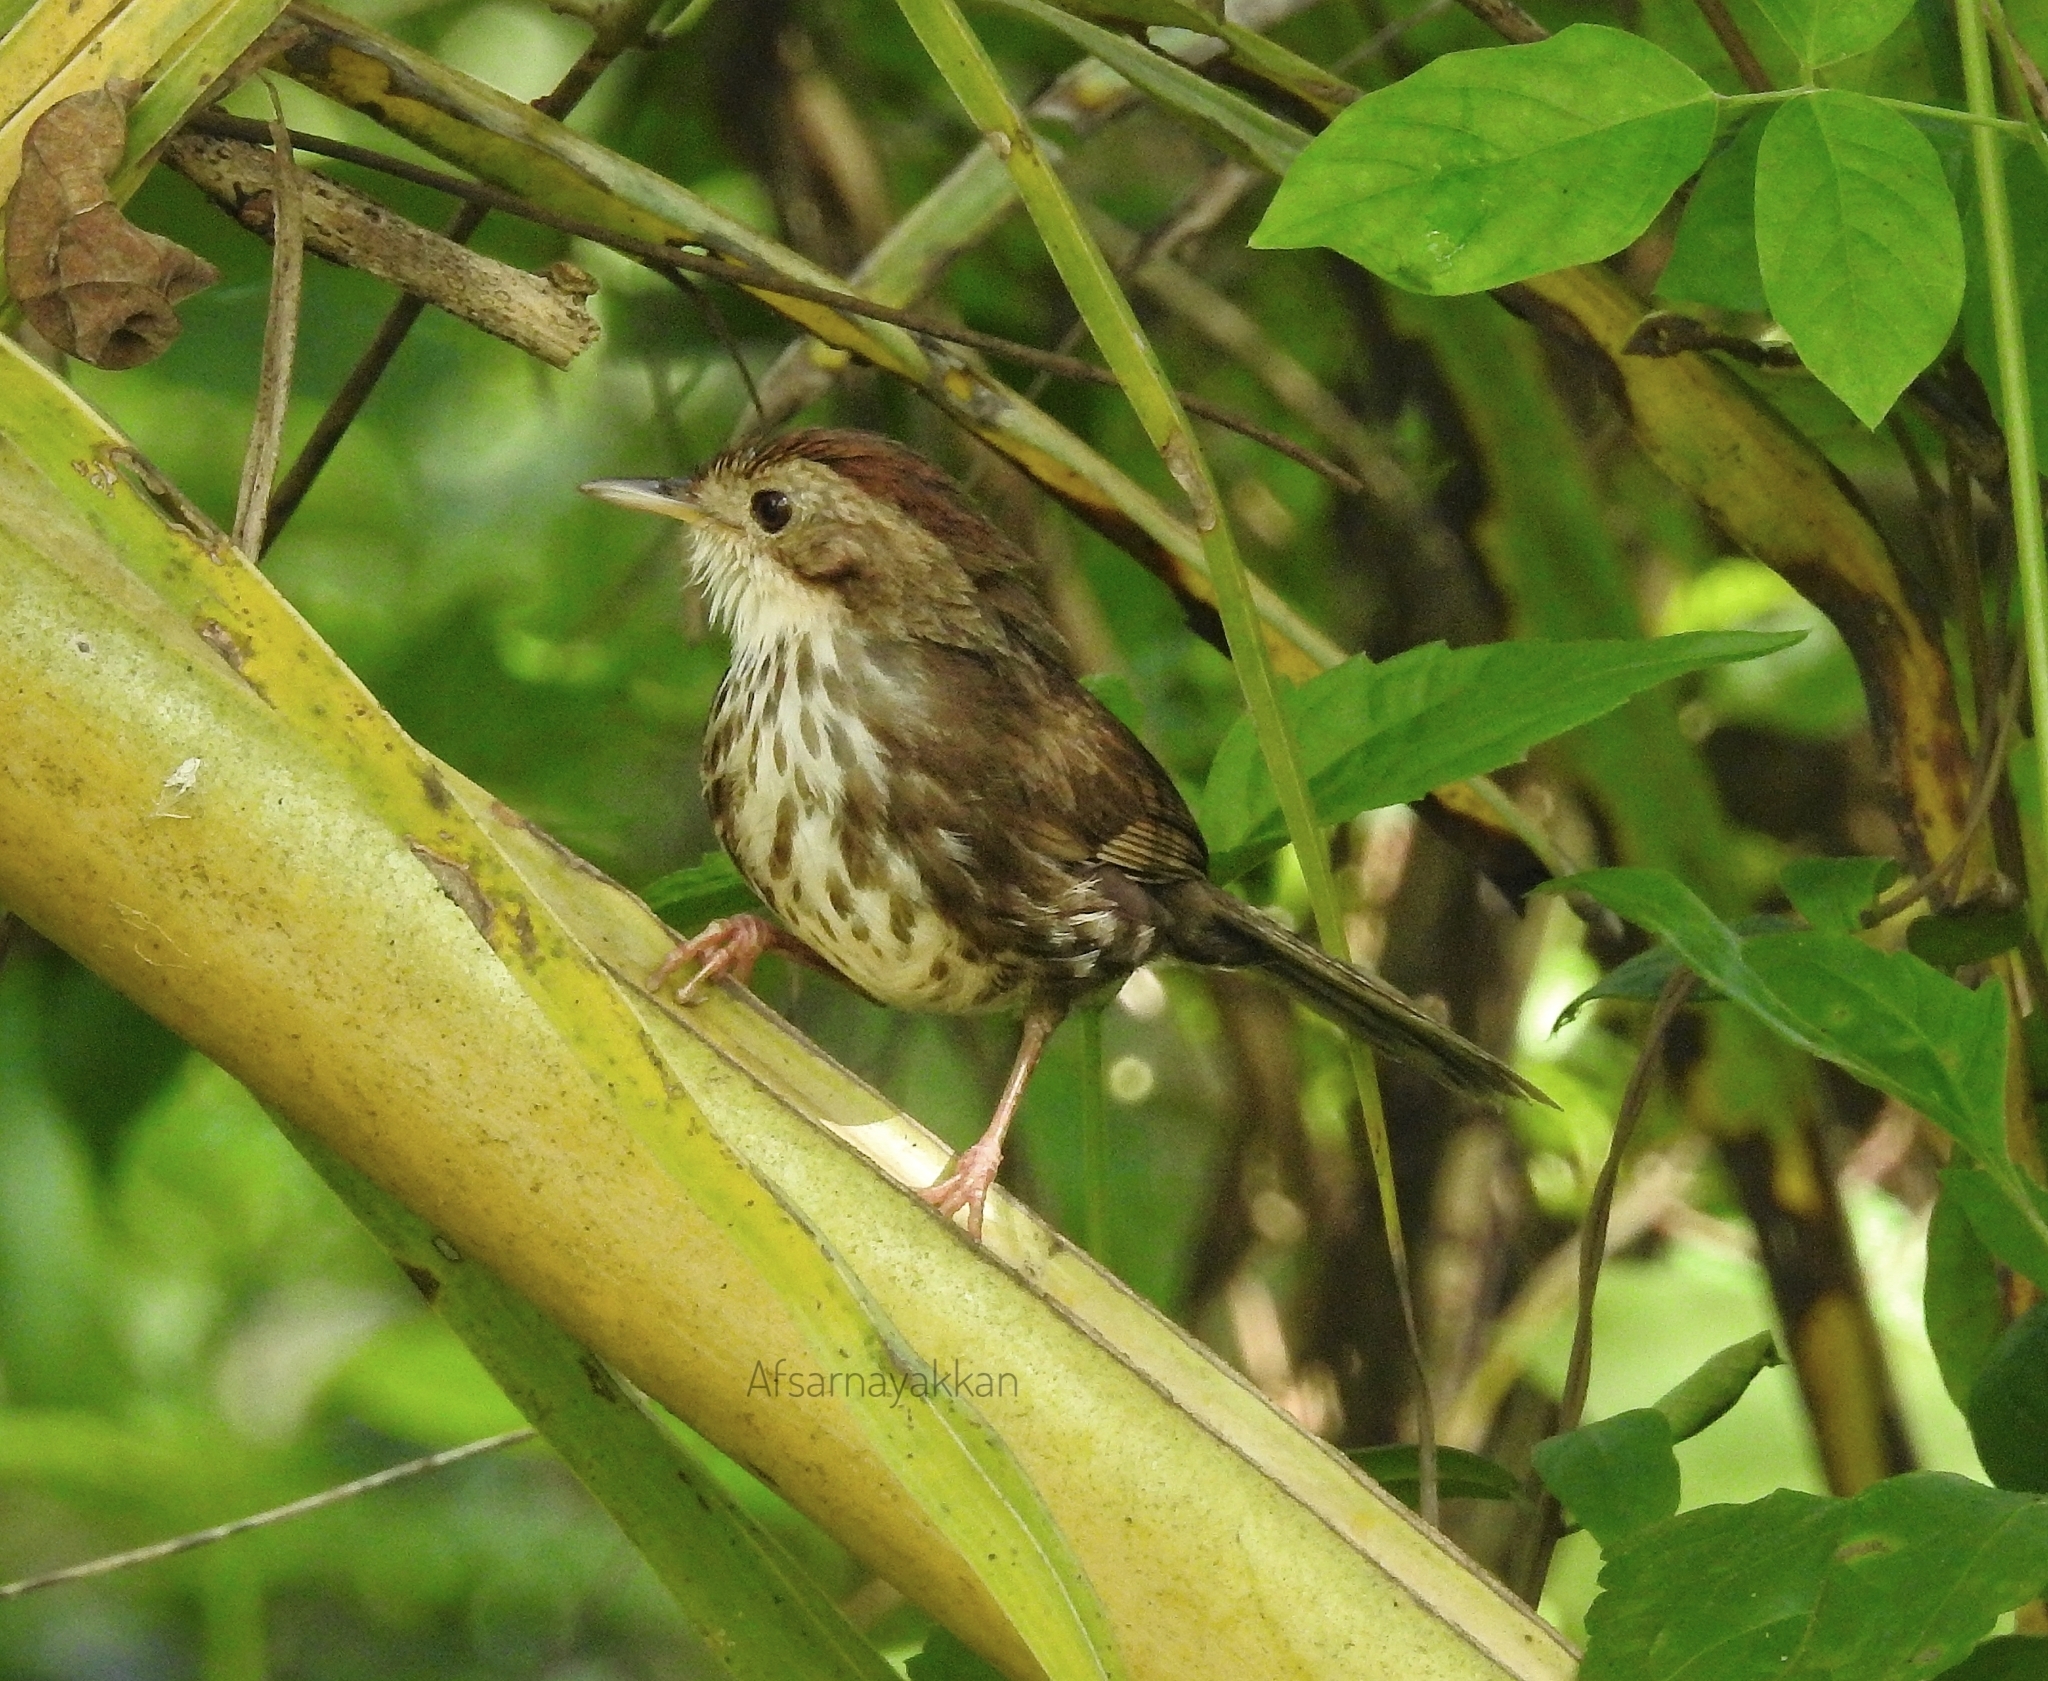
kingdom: Animalia
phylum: Chordata
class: Aves
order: Passeriformes
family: Pellorneidae
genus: Pellorneum
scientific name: Pellorneum ruficeps
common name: Puff-throated babbler
